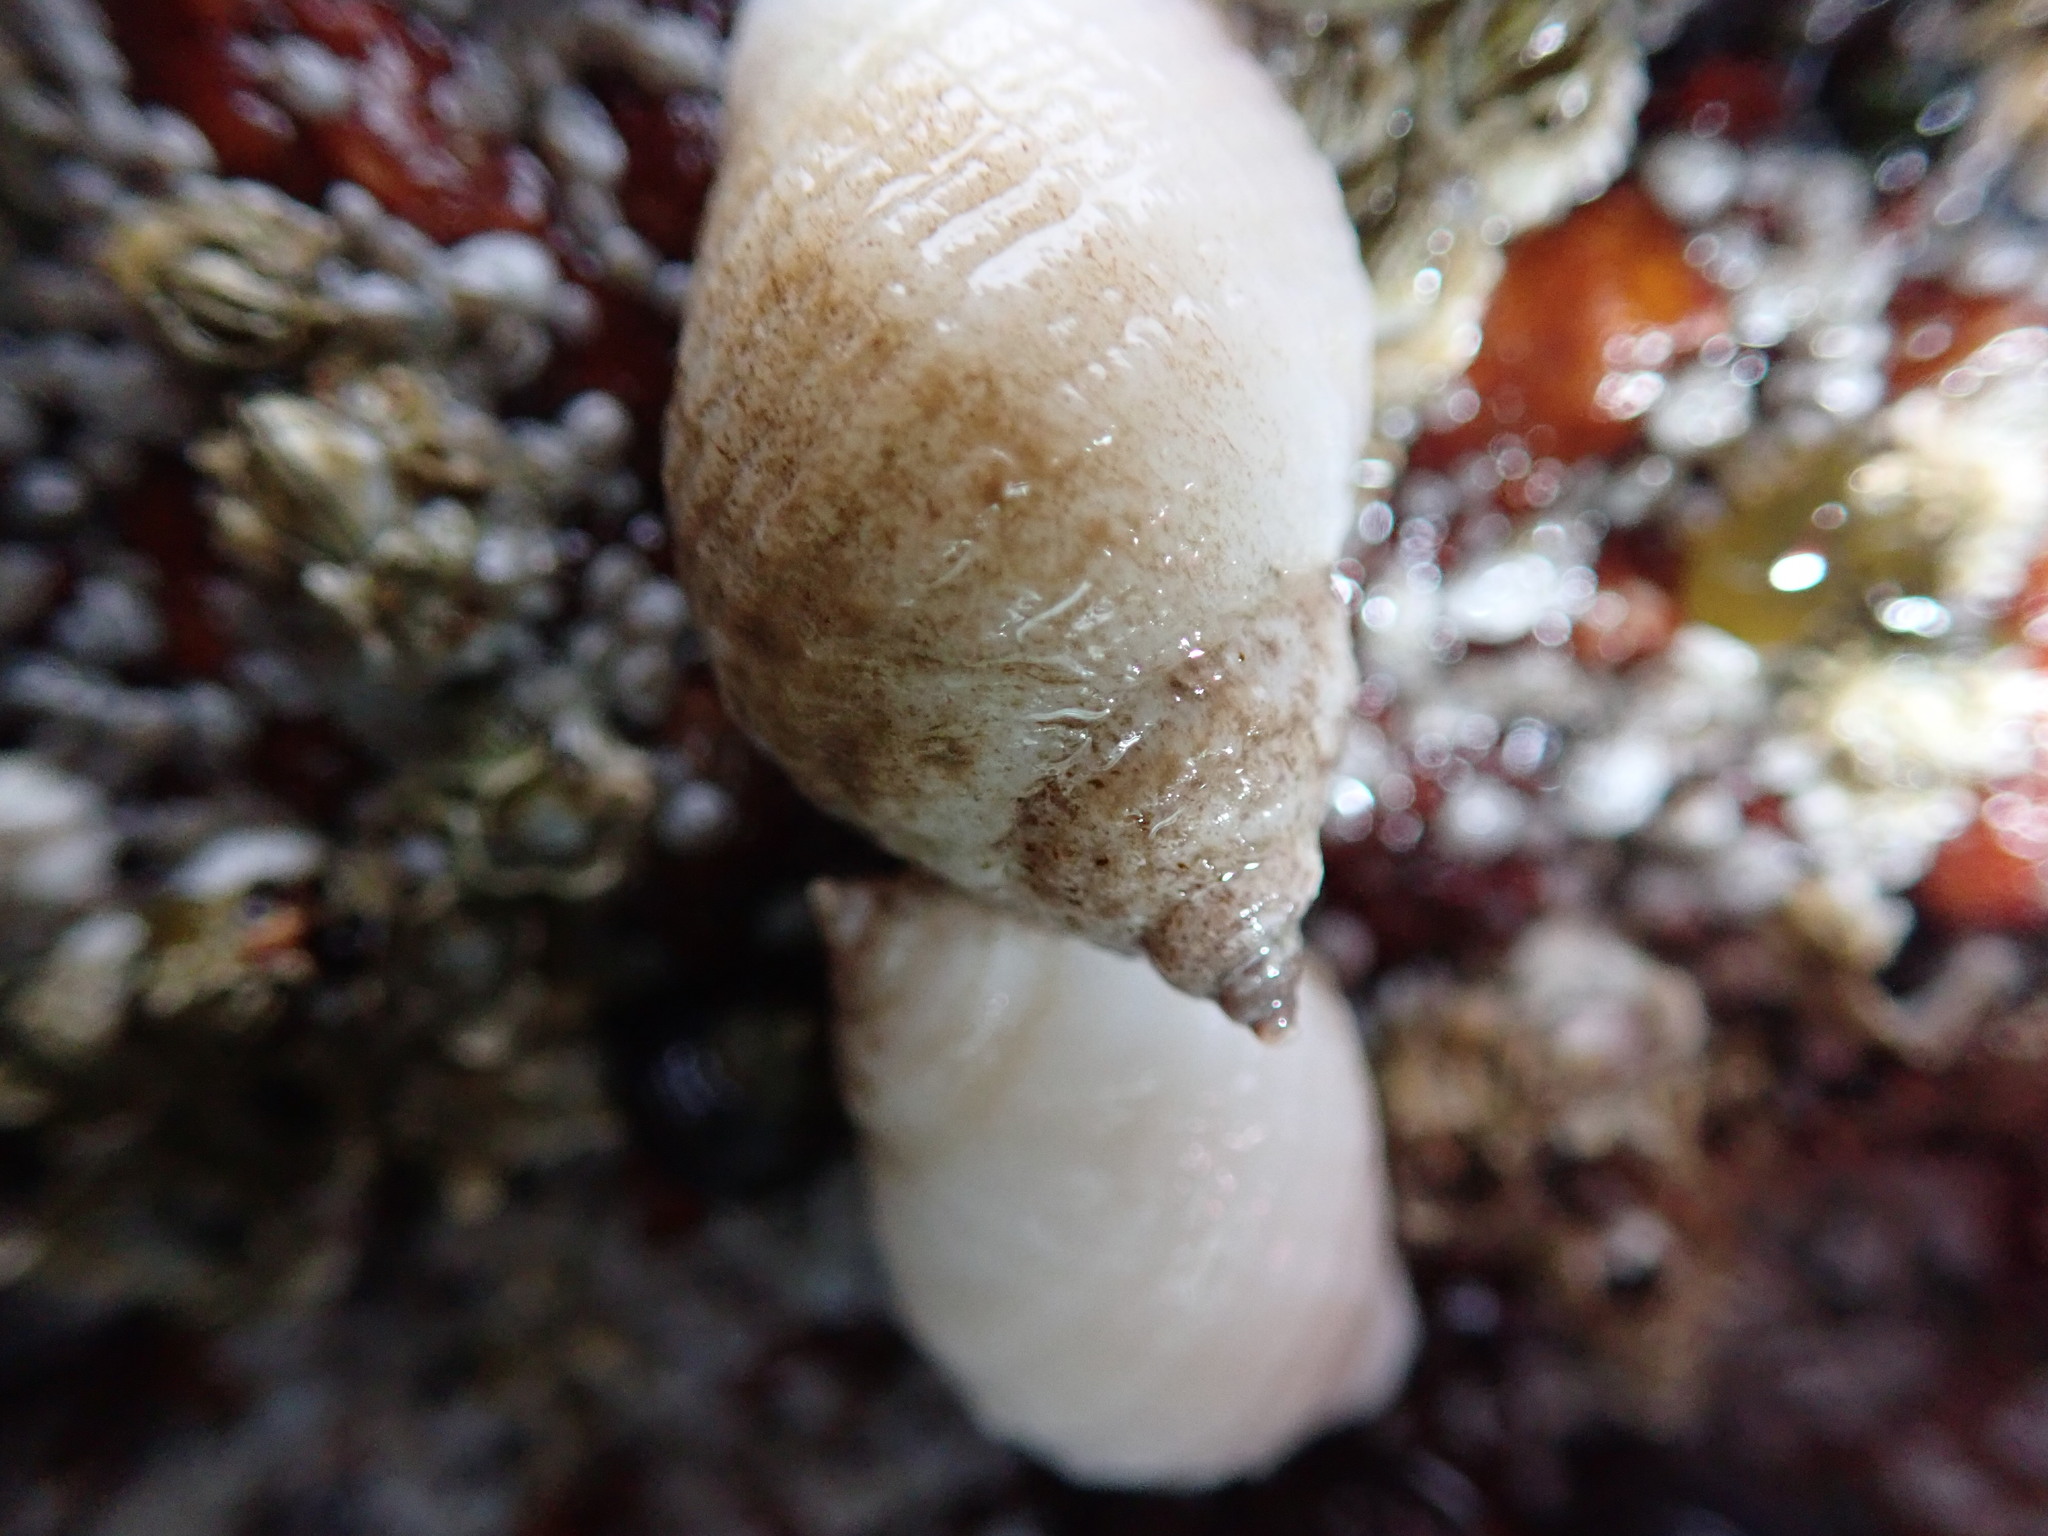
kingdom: Animalia
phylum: Mollusca
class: Gastropoda
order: Neogastropoda
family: Muricidae
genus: Nucella
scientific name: Nucella lapillus
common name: Dog whelk
